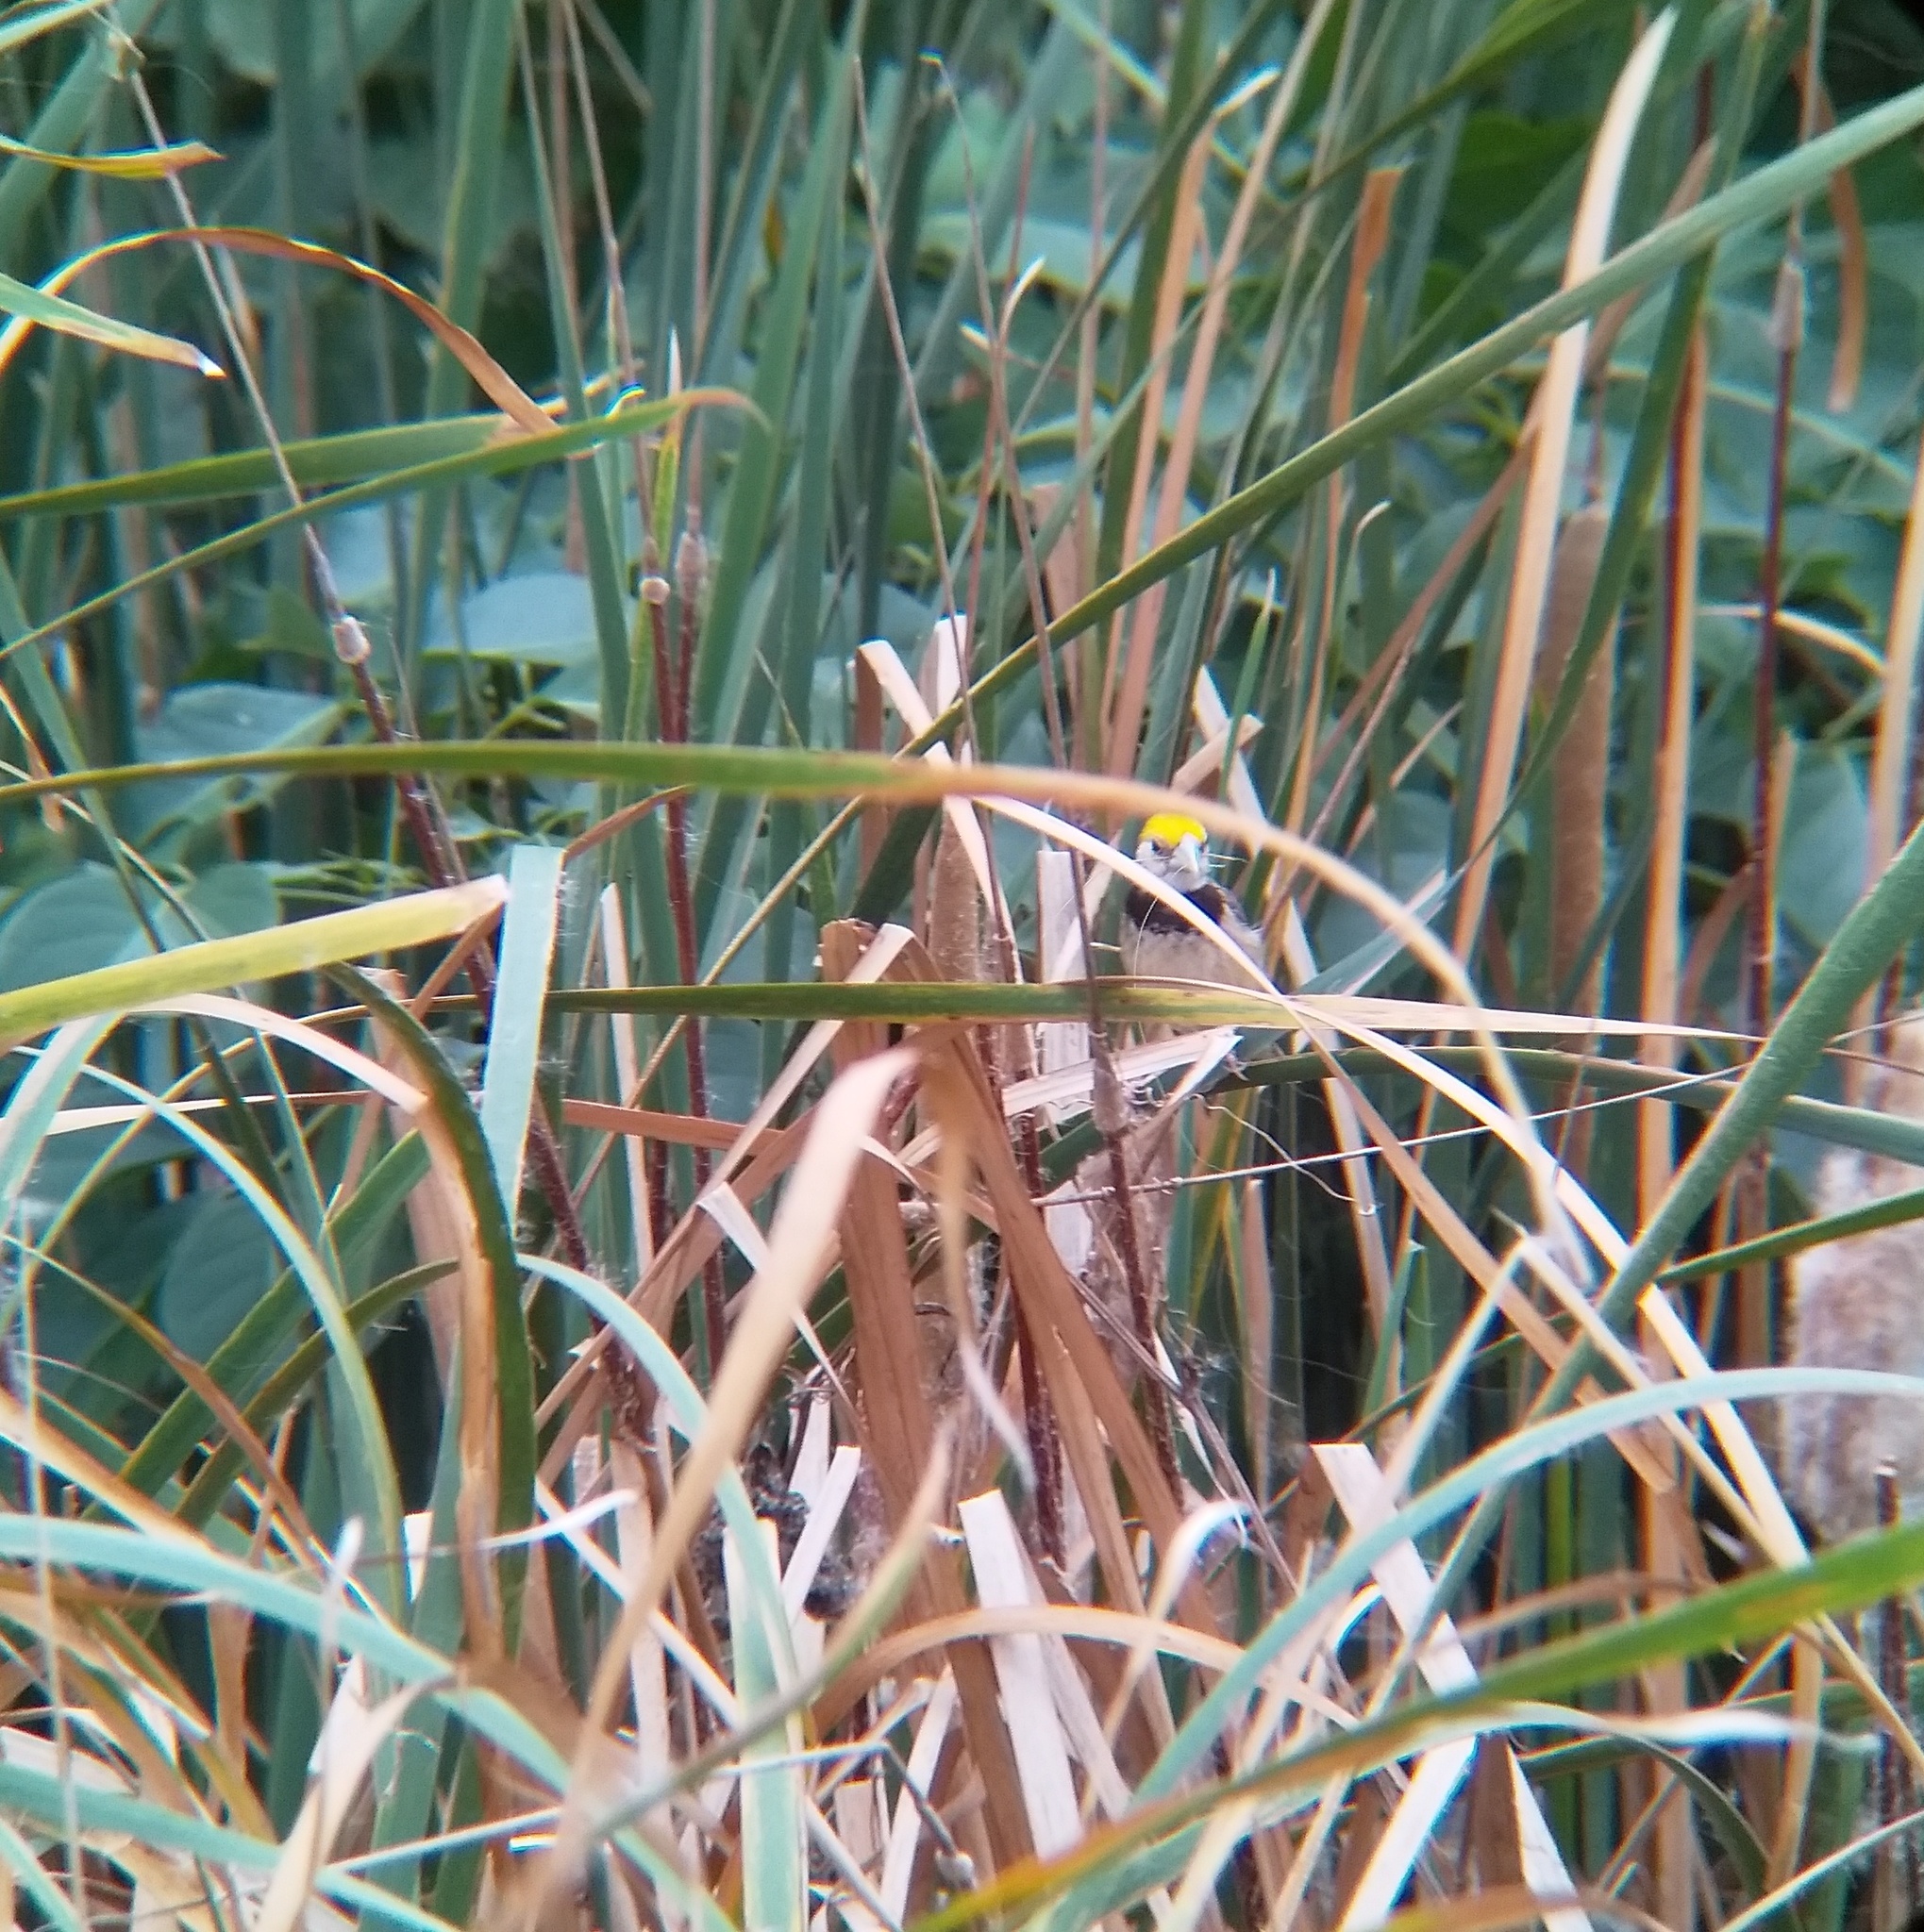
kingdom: Animalia
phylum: Chordata
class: Aves
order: Passeriformes
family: Ploceidae
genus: Ploceus
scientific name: Ploceus benghalensis
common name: Black-breasted weaver
